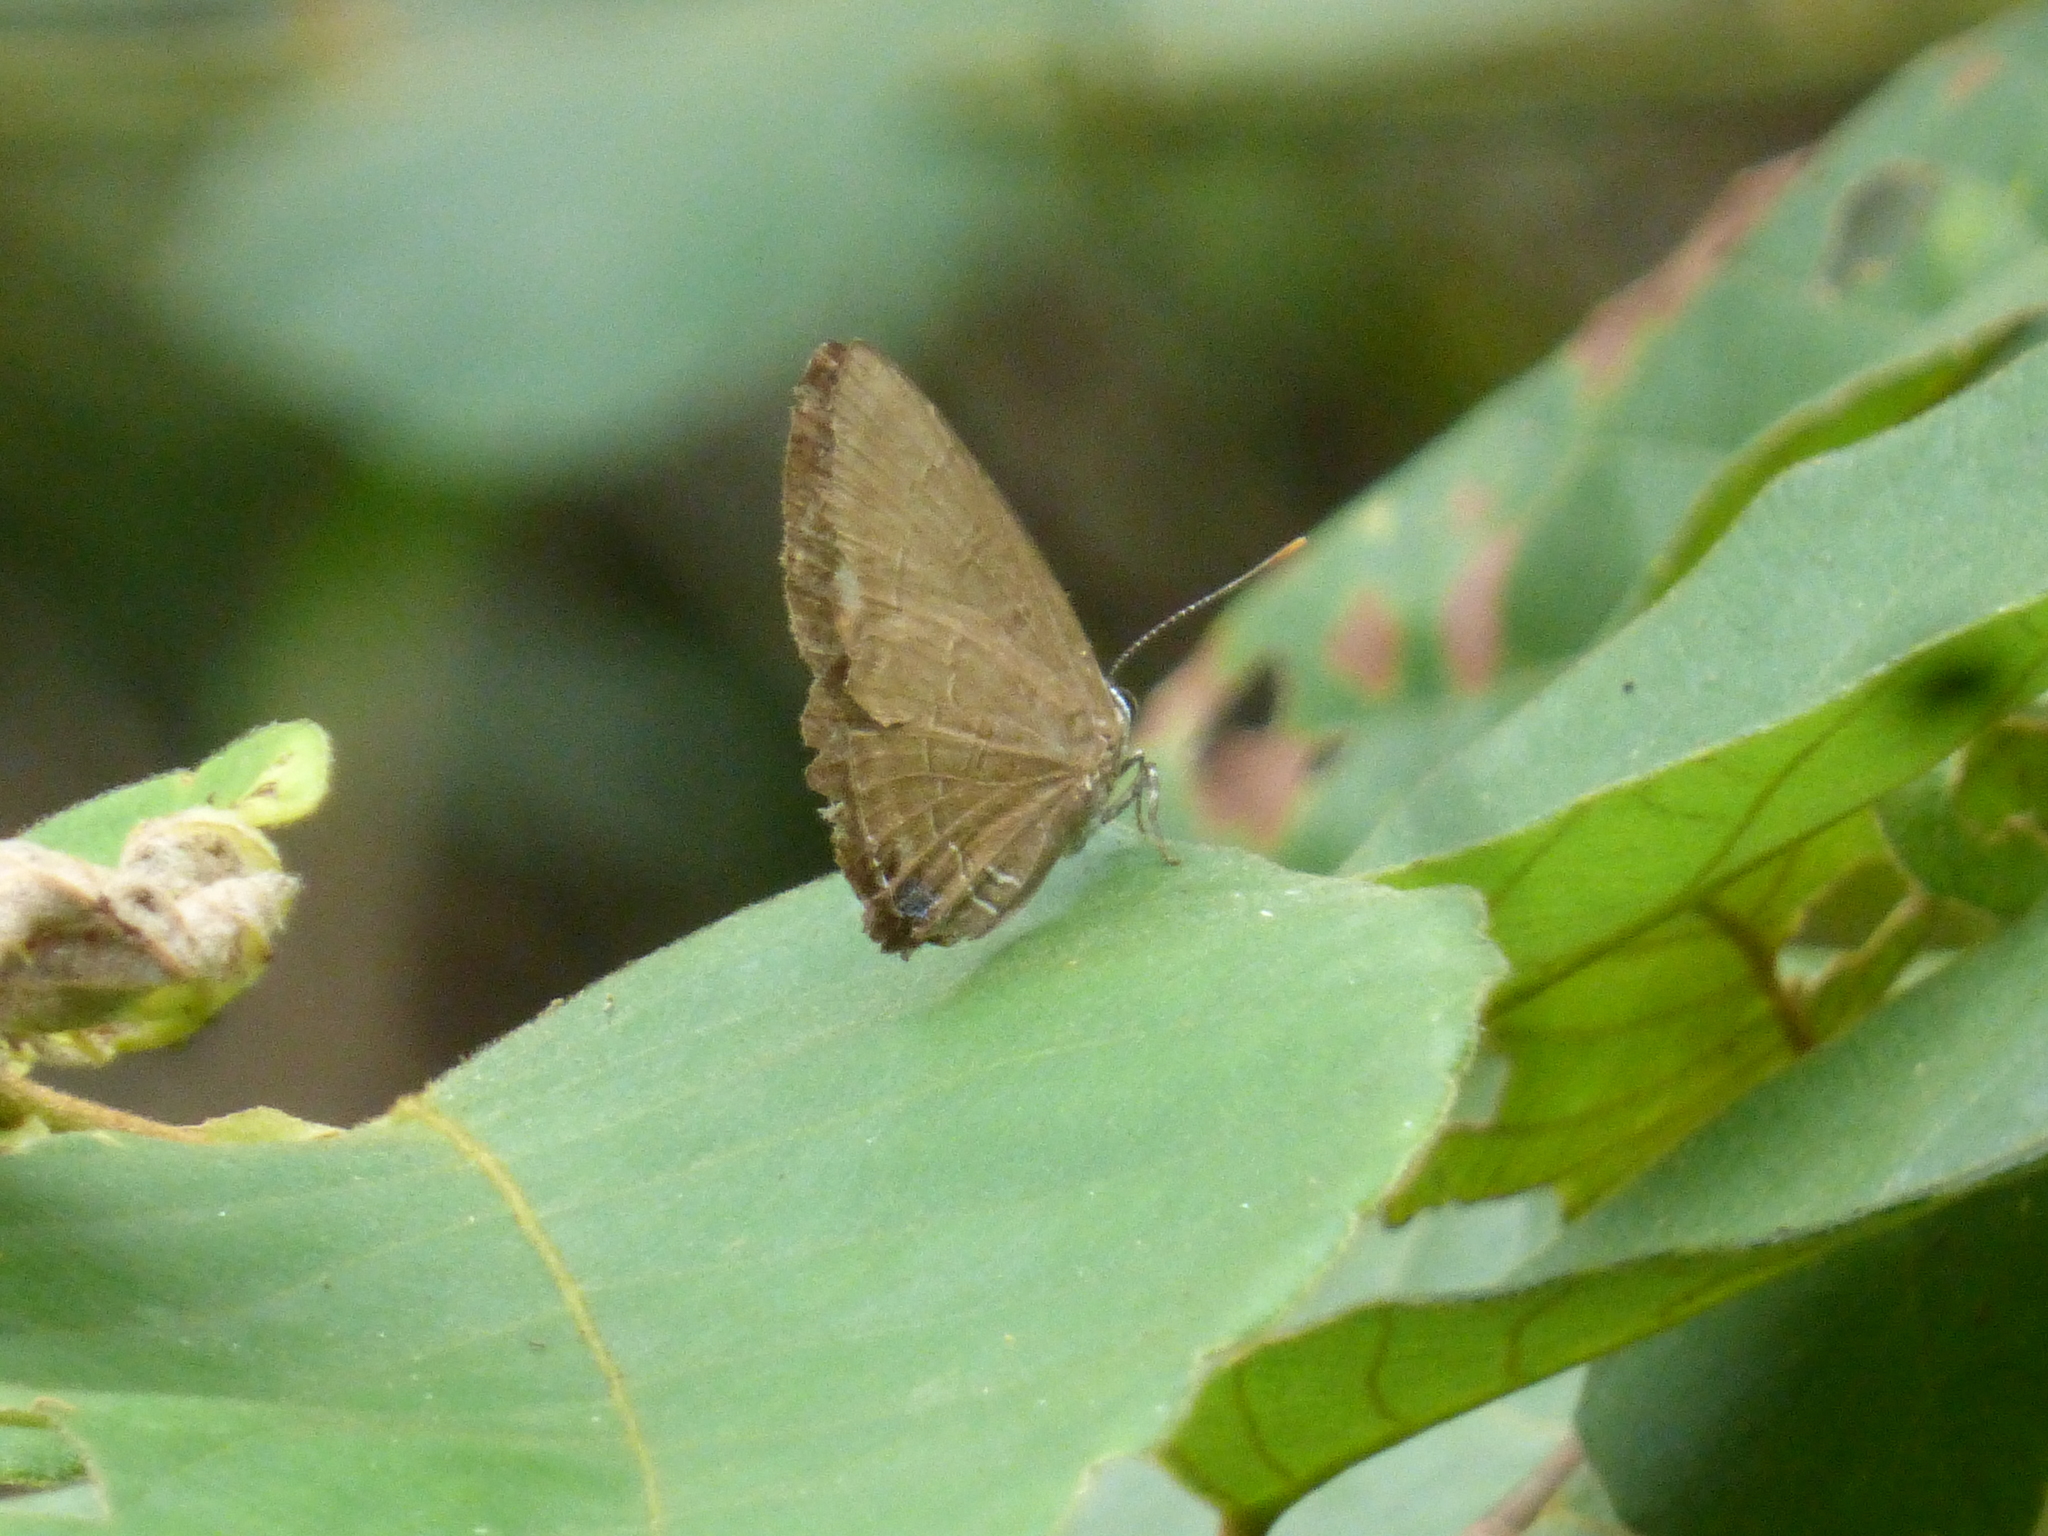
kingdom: Animalia
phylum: Arthropoda
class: Insecta
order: Lepidoptera
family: Lycaenidae
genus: Rapala
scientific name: Rapala pheretima
